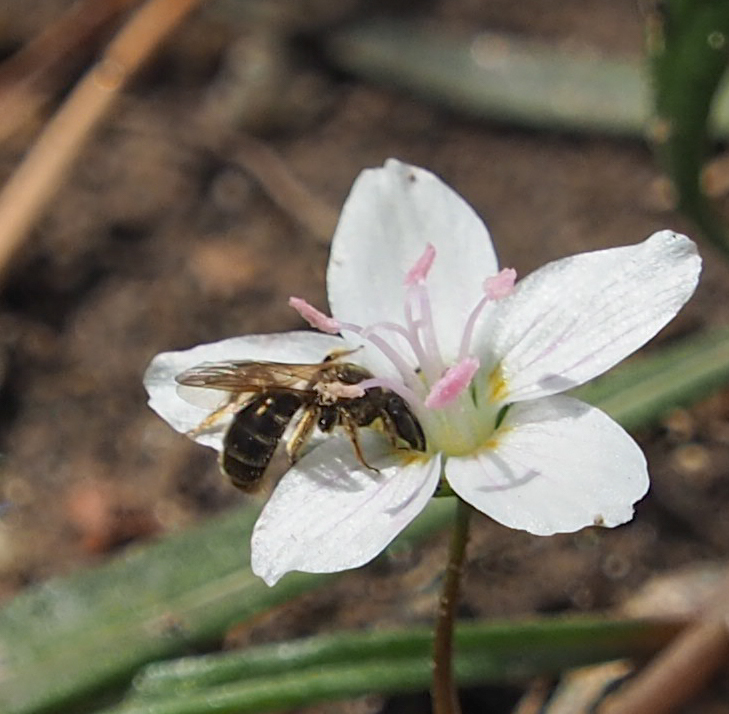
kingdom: Animalia
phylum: Arthropoda
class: Insecta
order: Hymenoptera
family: Andrenidae
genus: Andrena
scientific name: Andrena erigeniae
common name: Spring beauty miner
